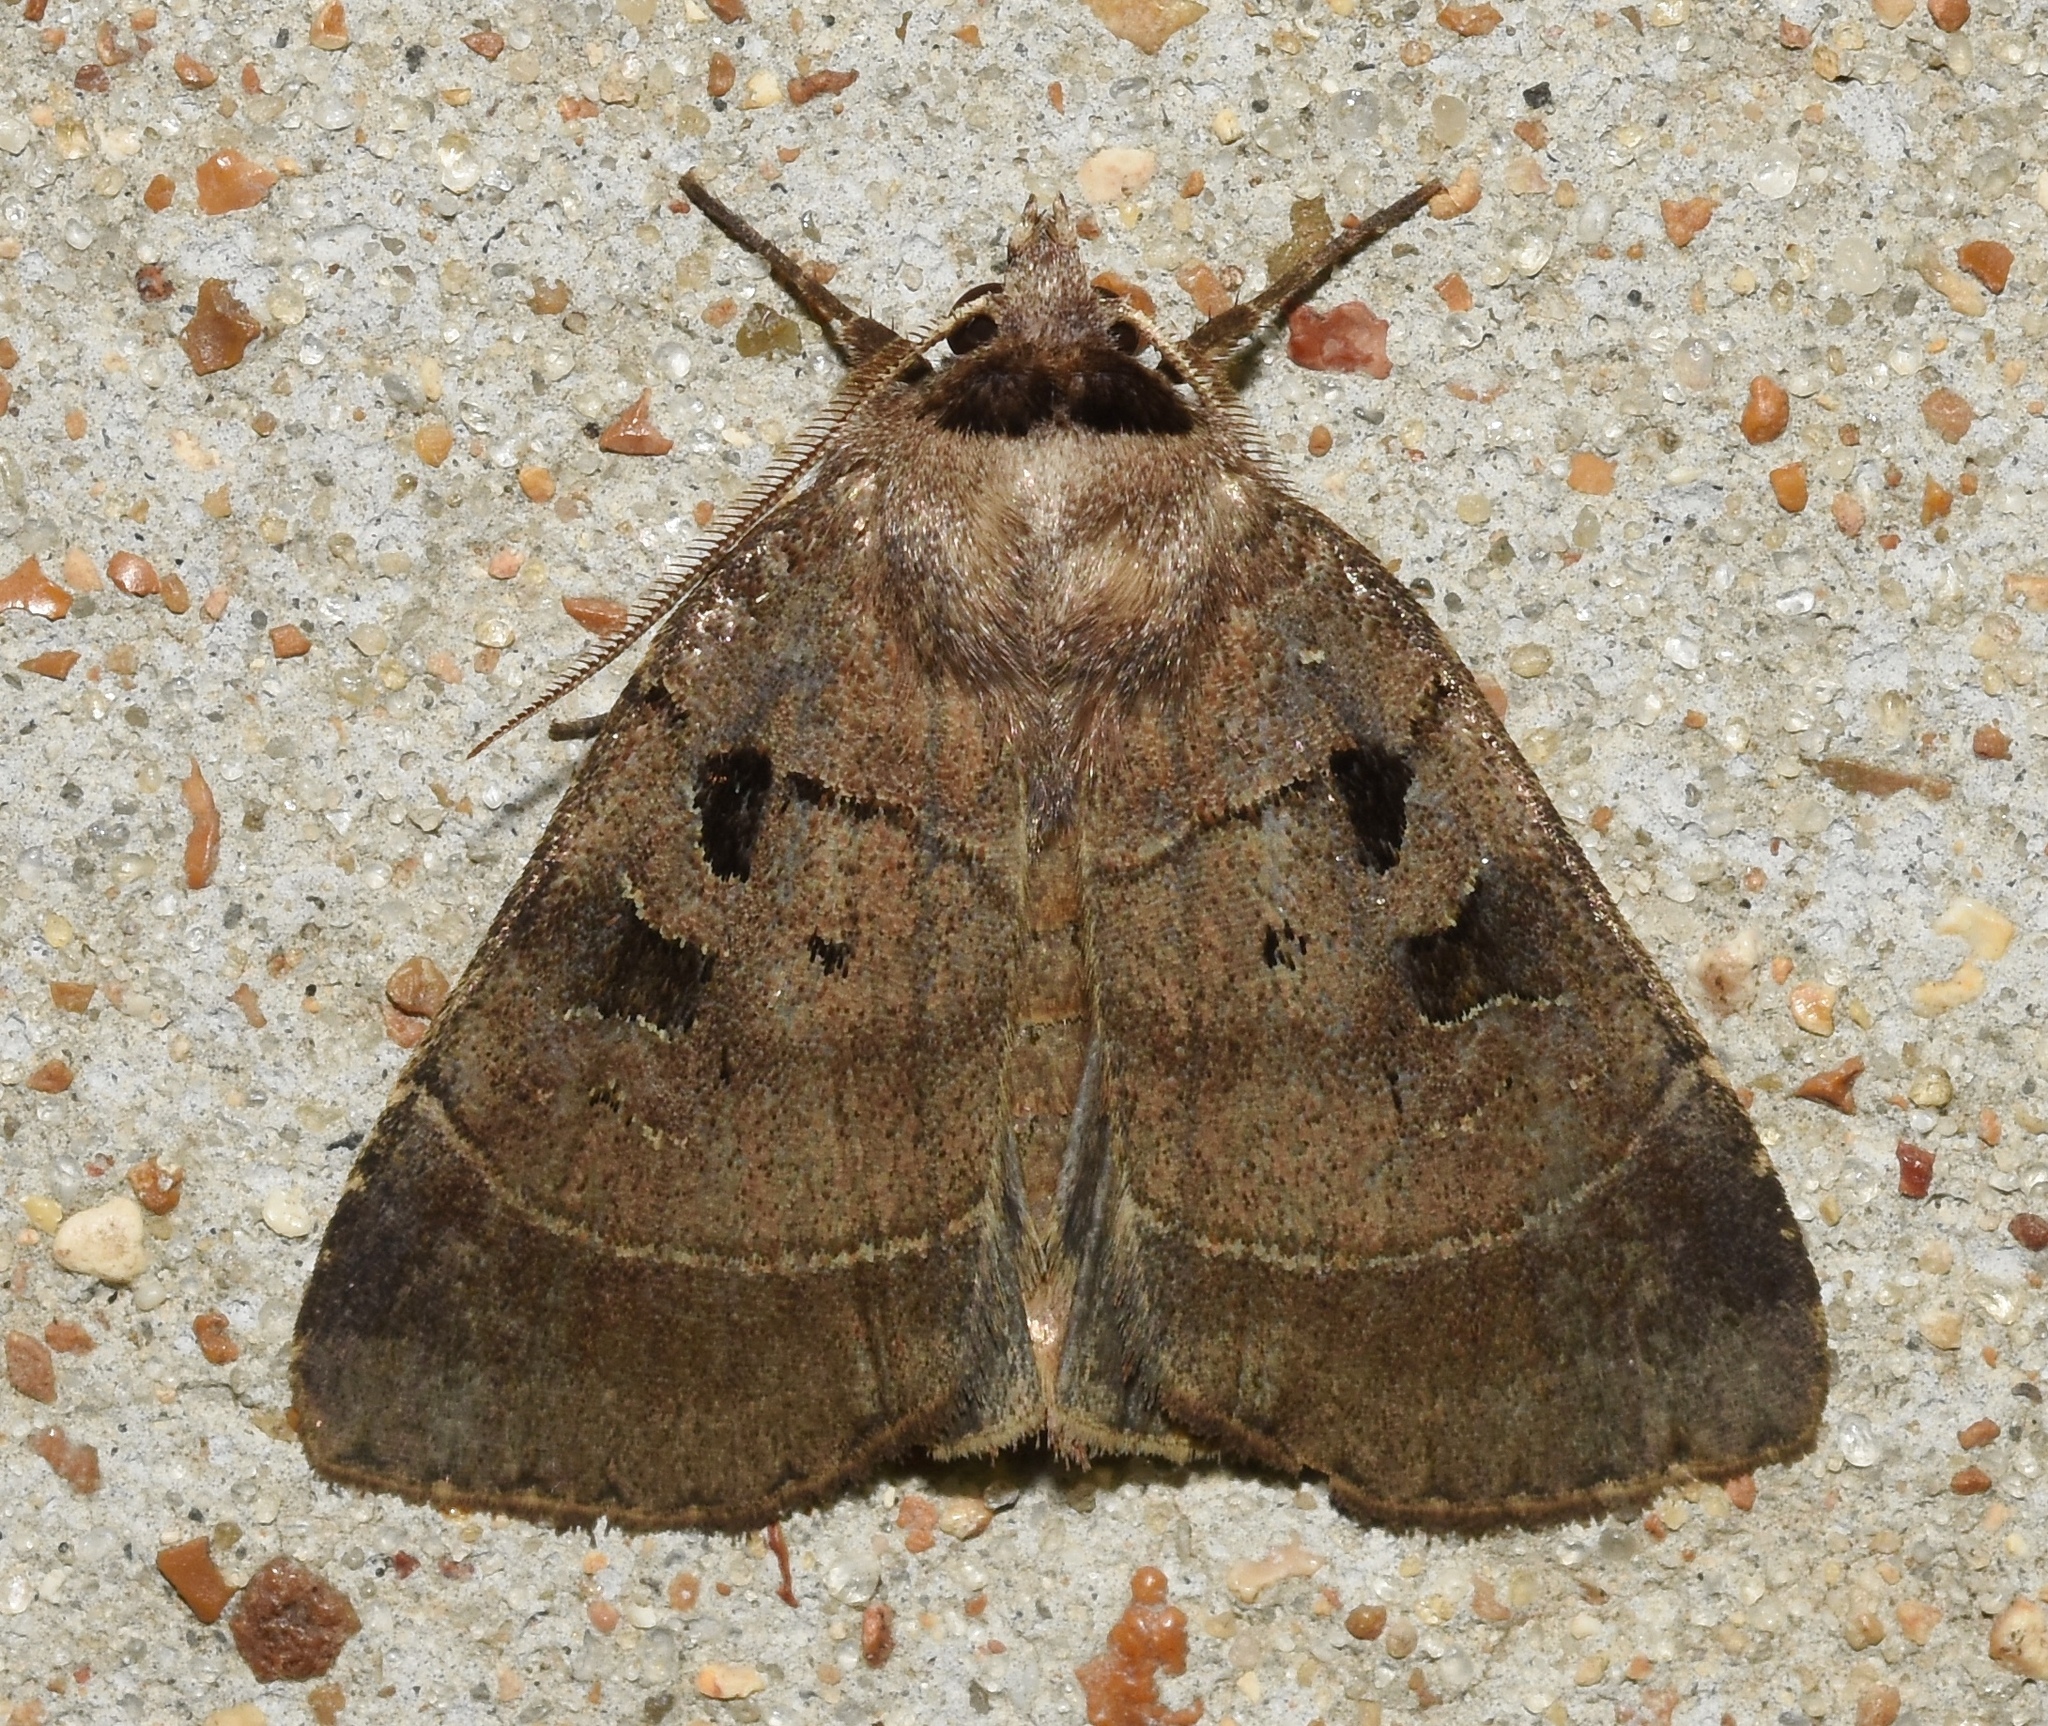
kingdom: Animalia
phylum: Arthropoda
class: Insecta
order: Lepidoptera
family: Noctuidae
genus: Agnorisma
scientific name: Agnorisma badinodis
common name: Pale-banded dart
